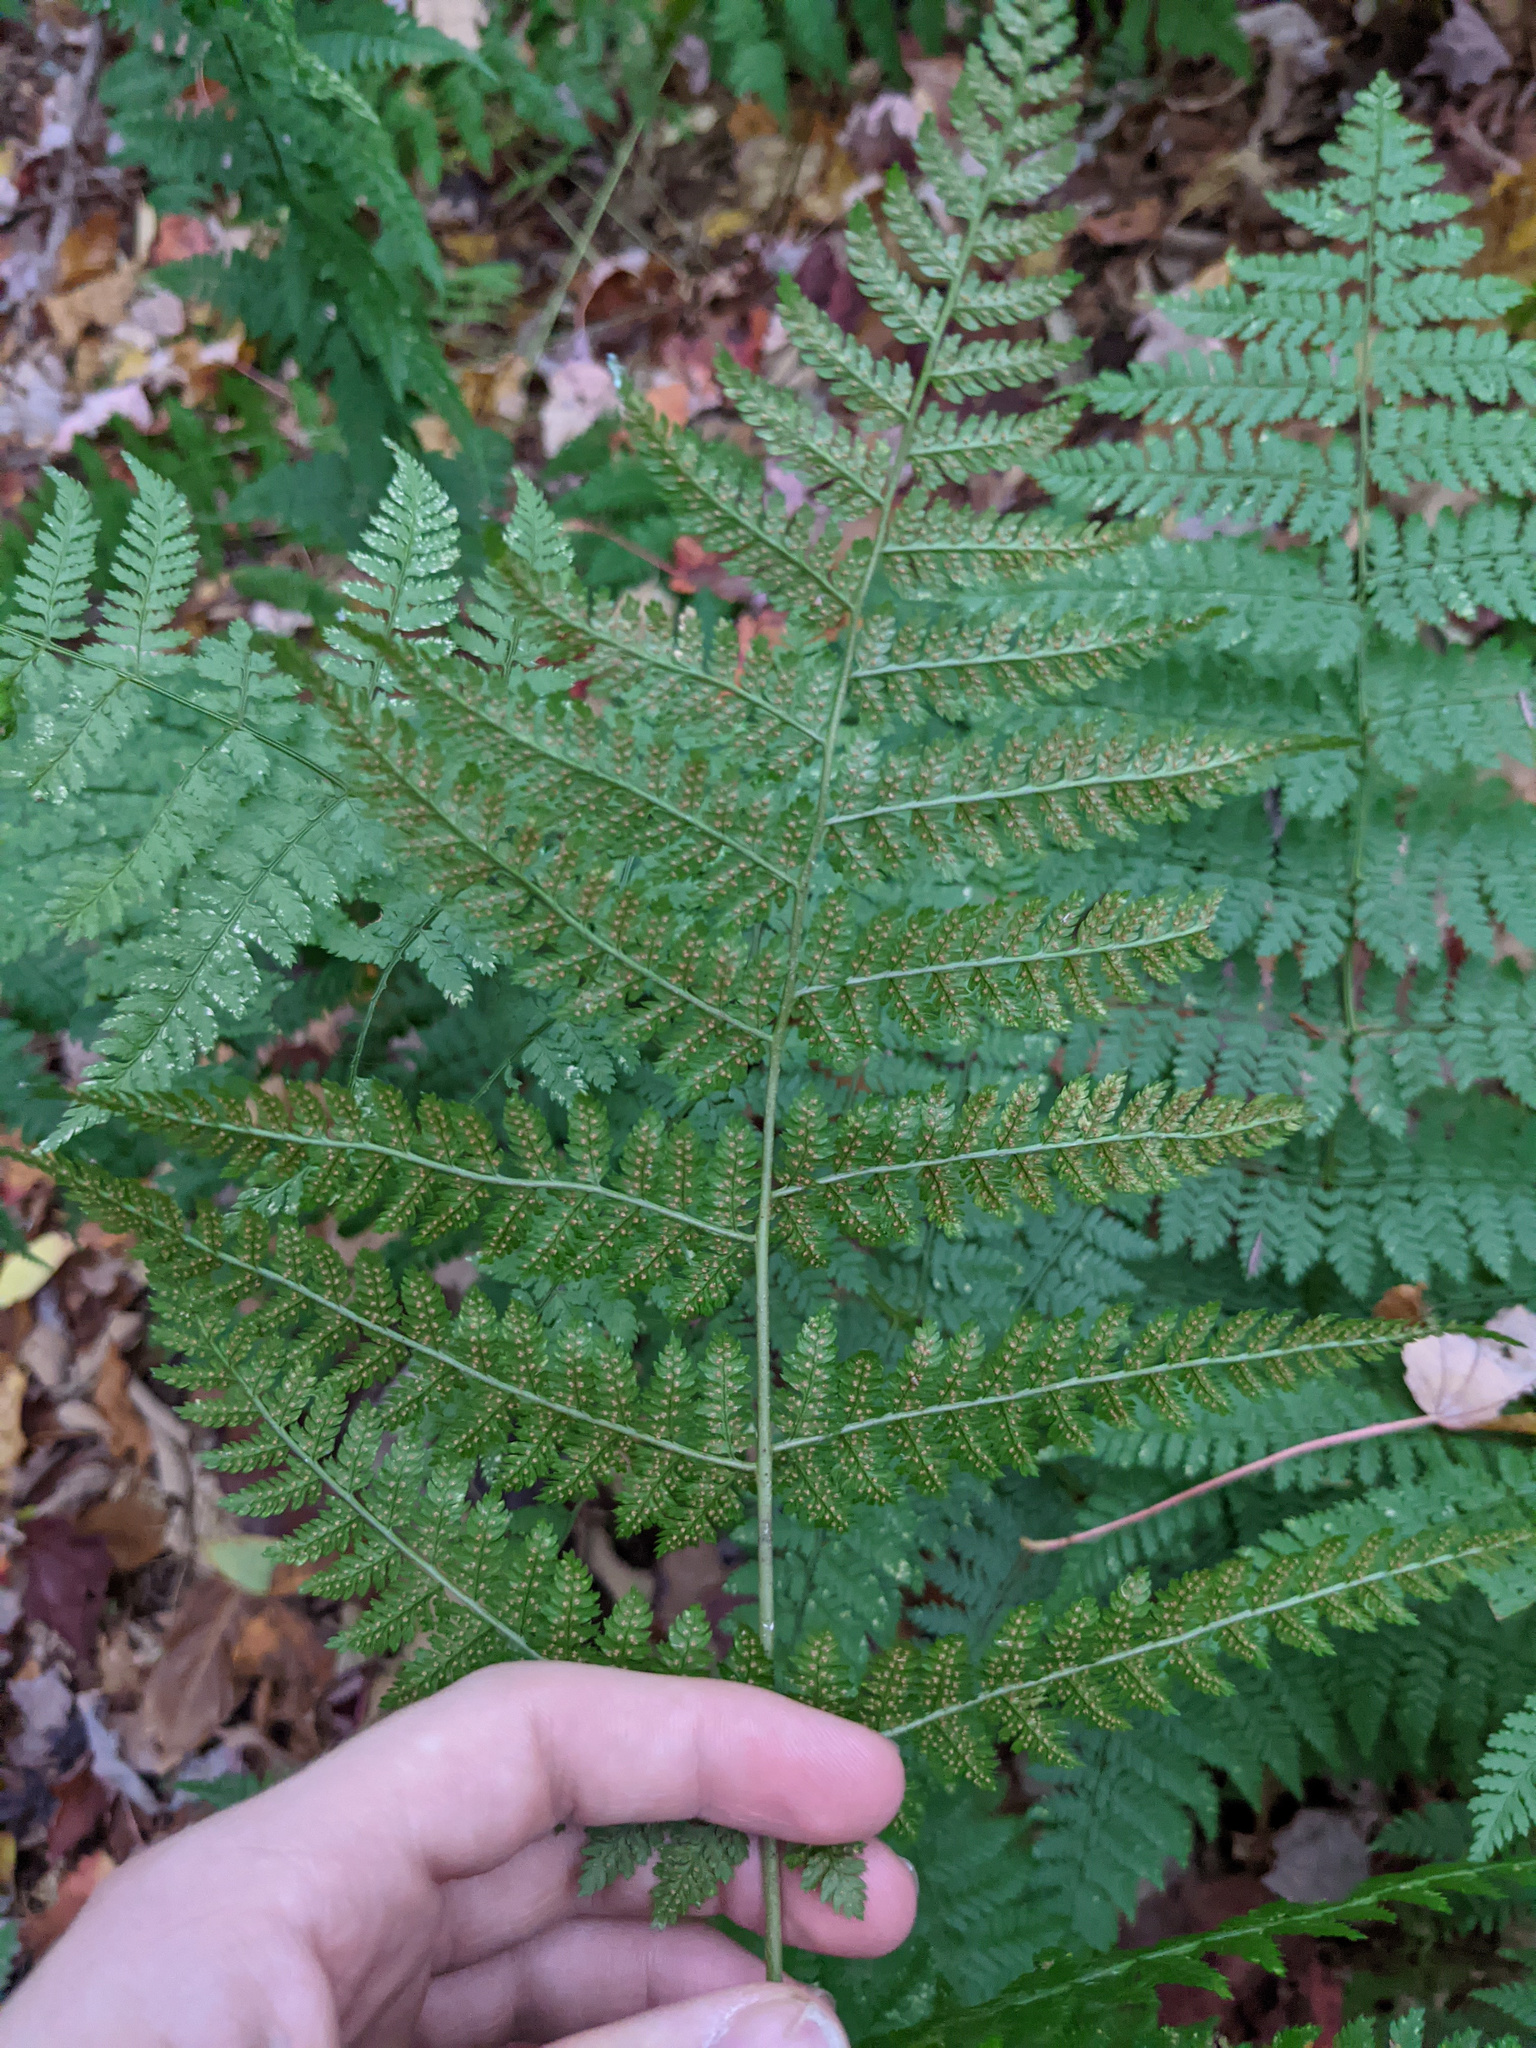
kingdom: Plantae
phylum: Tracheophyta
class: Polypodiopsida
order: Polypodiales
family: Dryopteridaceae
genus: Dryopteris
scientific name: Dryopteris intermedia
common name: Evergreen wood fern
